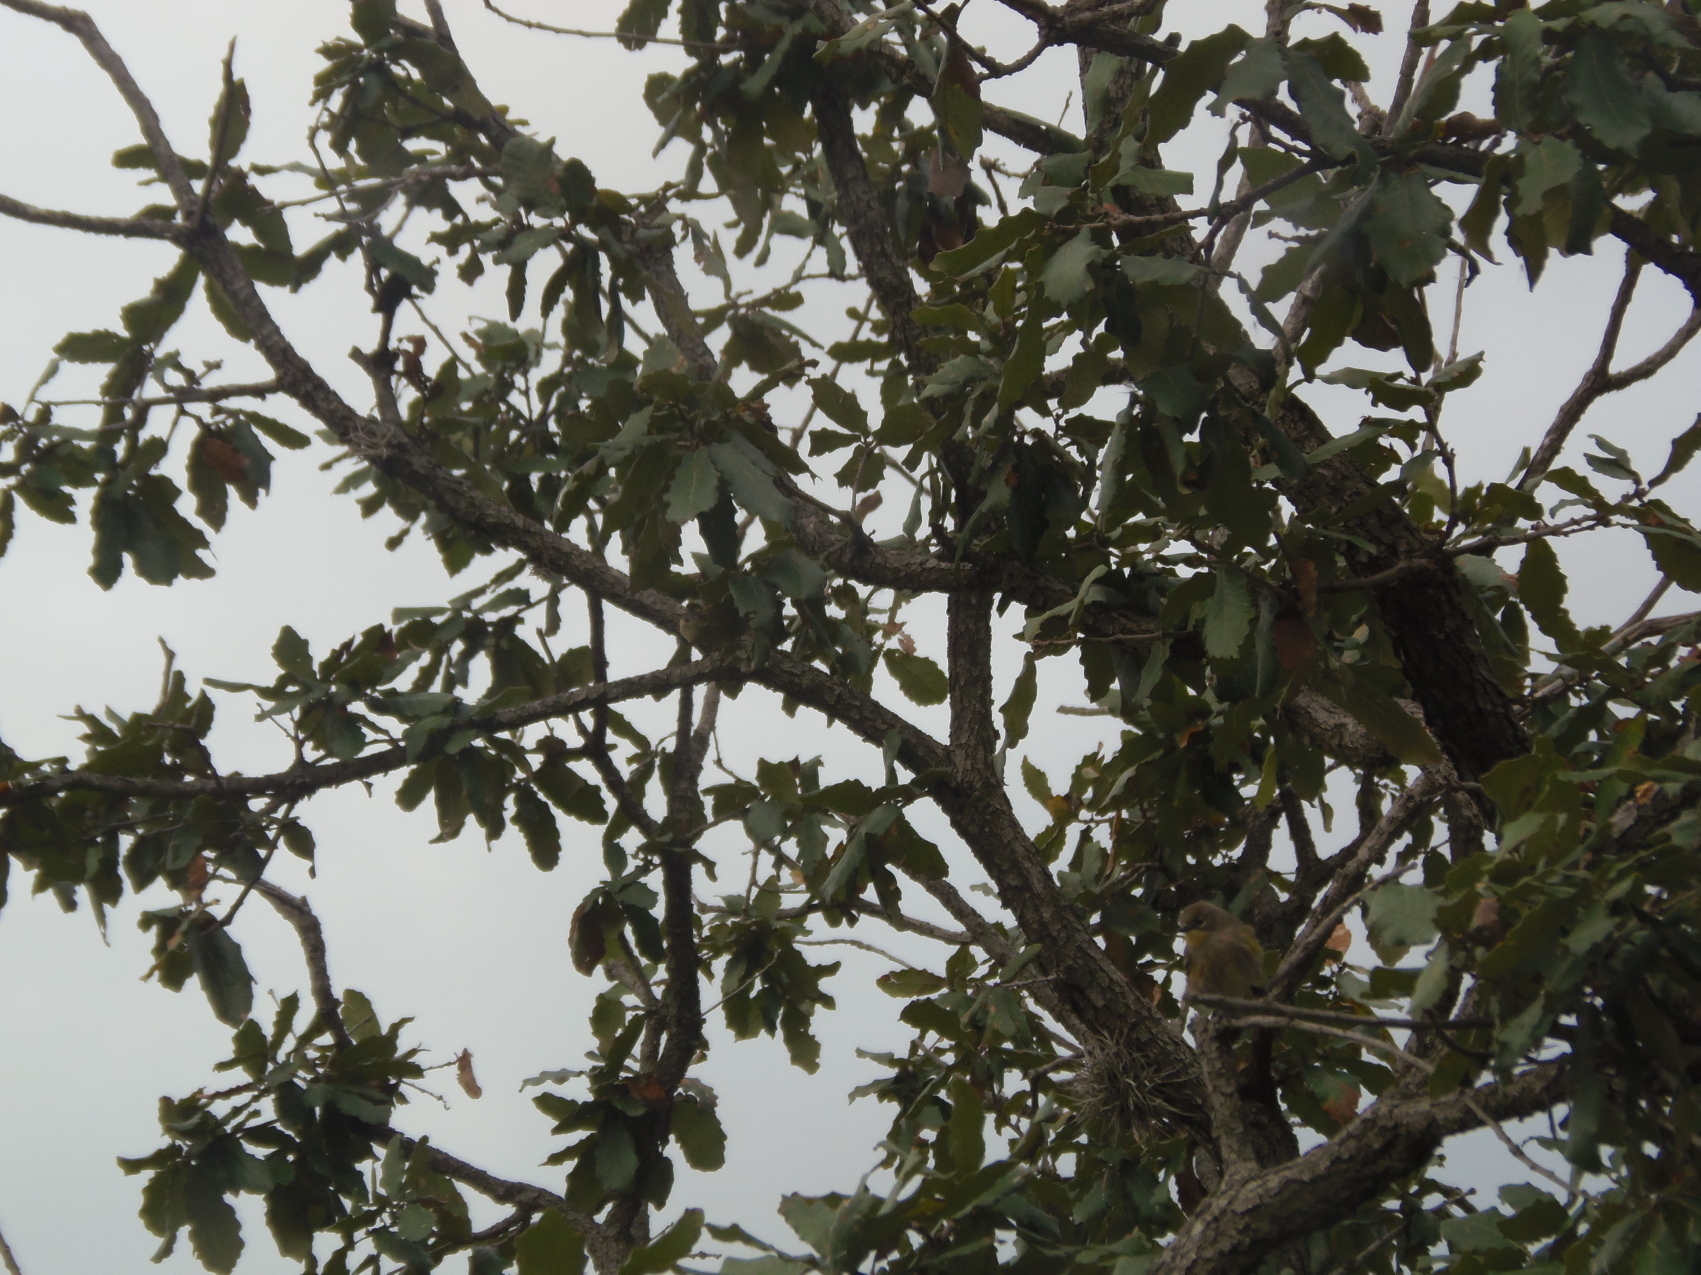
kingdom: Animalia
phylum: Chordata
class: Aves
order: Passeriformes
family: Parulidae
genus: Setophaga
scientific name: Setophaga auduboni
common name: Audubon's warbler
